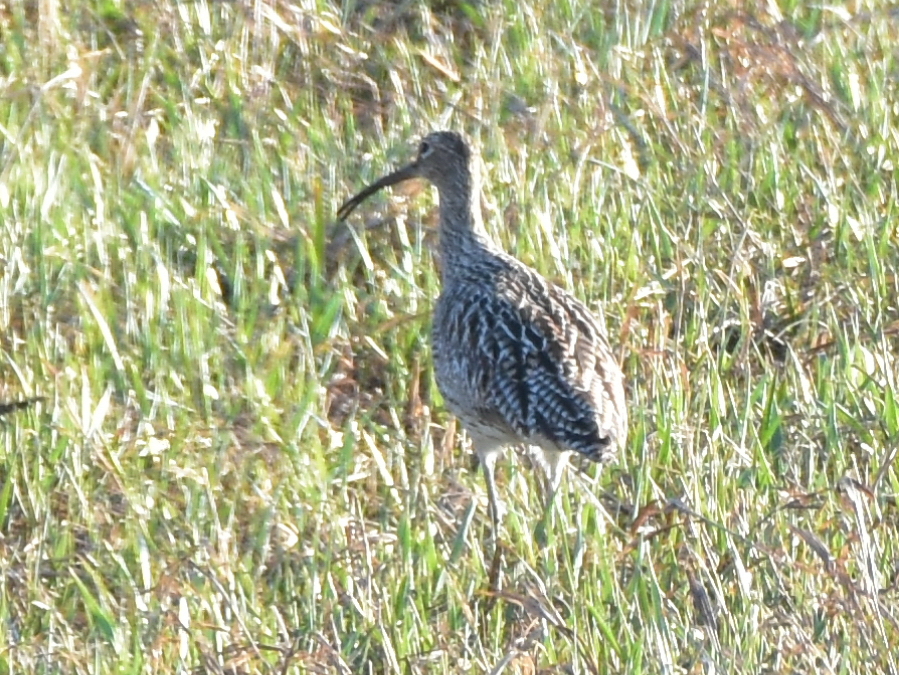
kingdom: Animalia
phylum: Chordata
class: Aves
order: Charadriiformes
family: Scolopacidae
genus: Numenius
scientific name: Numenius arquata
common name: Eurasian curlew
